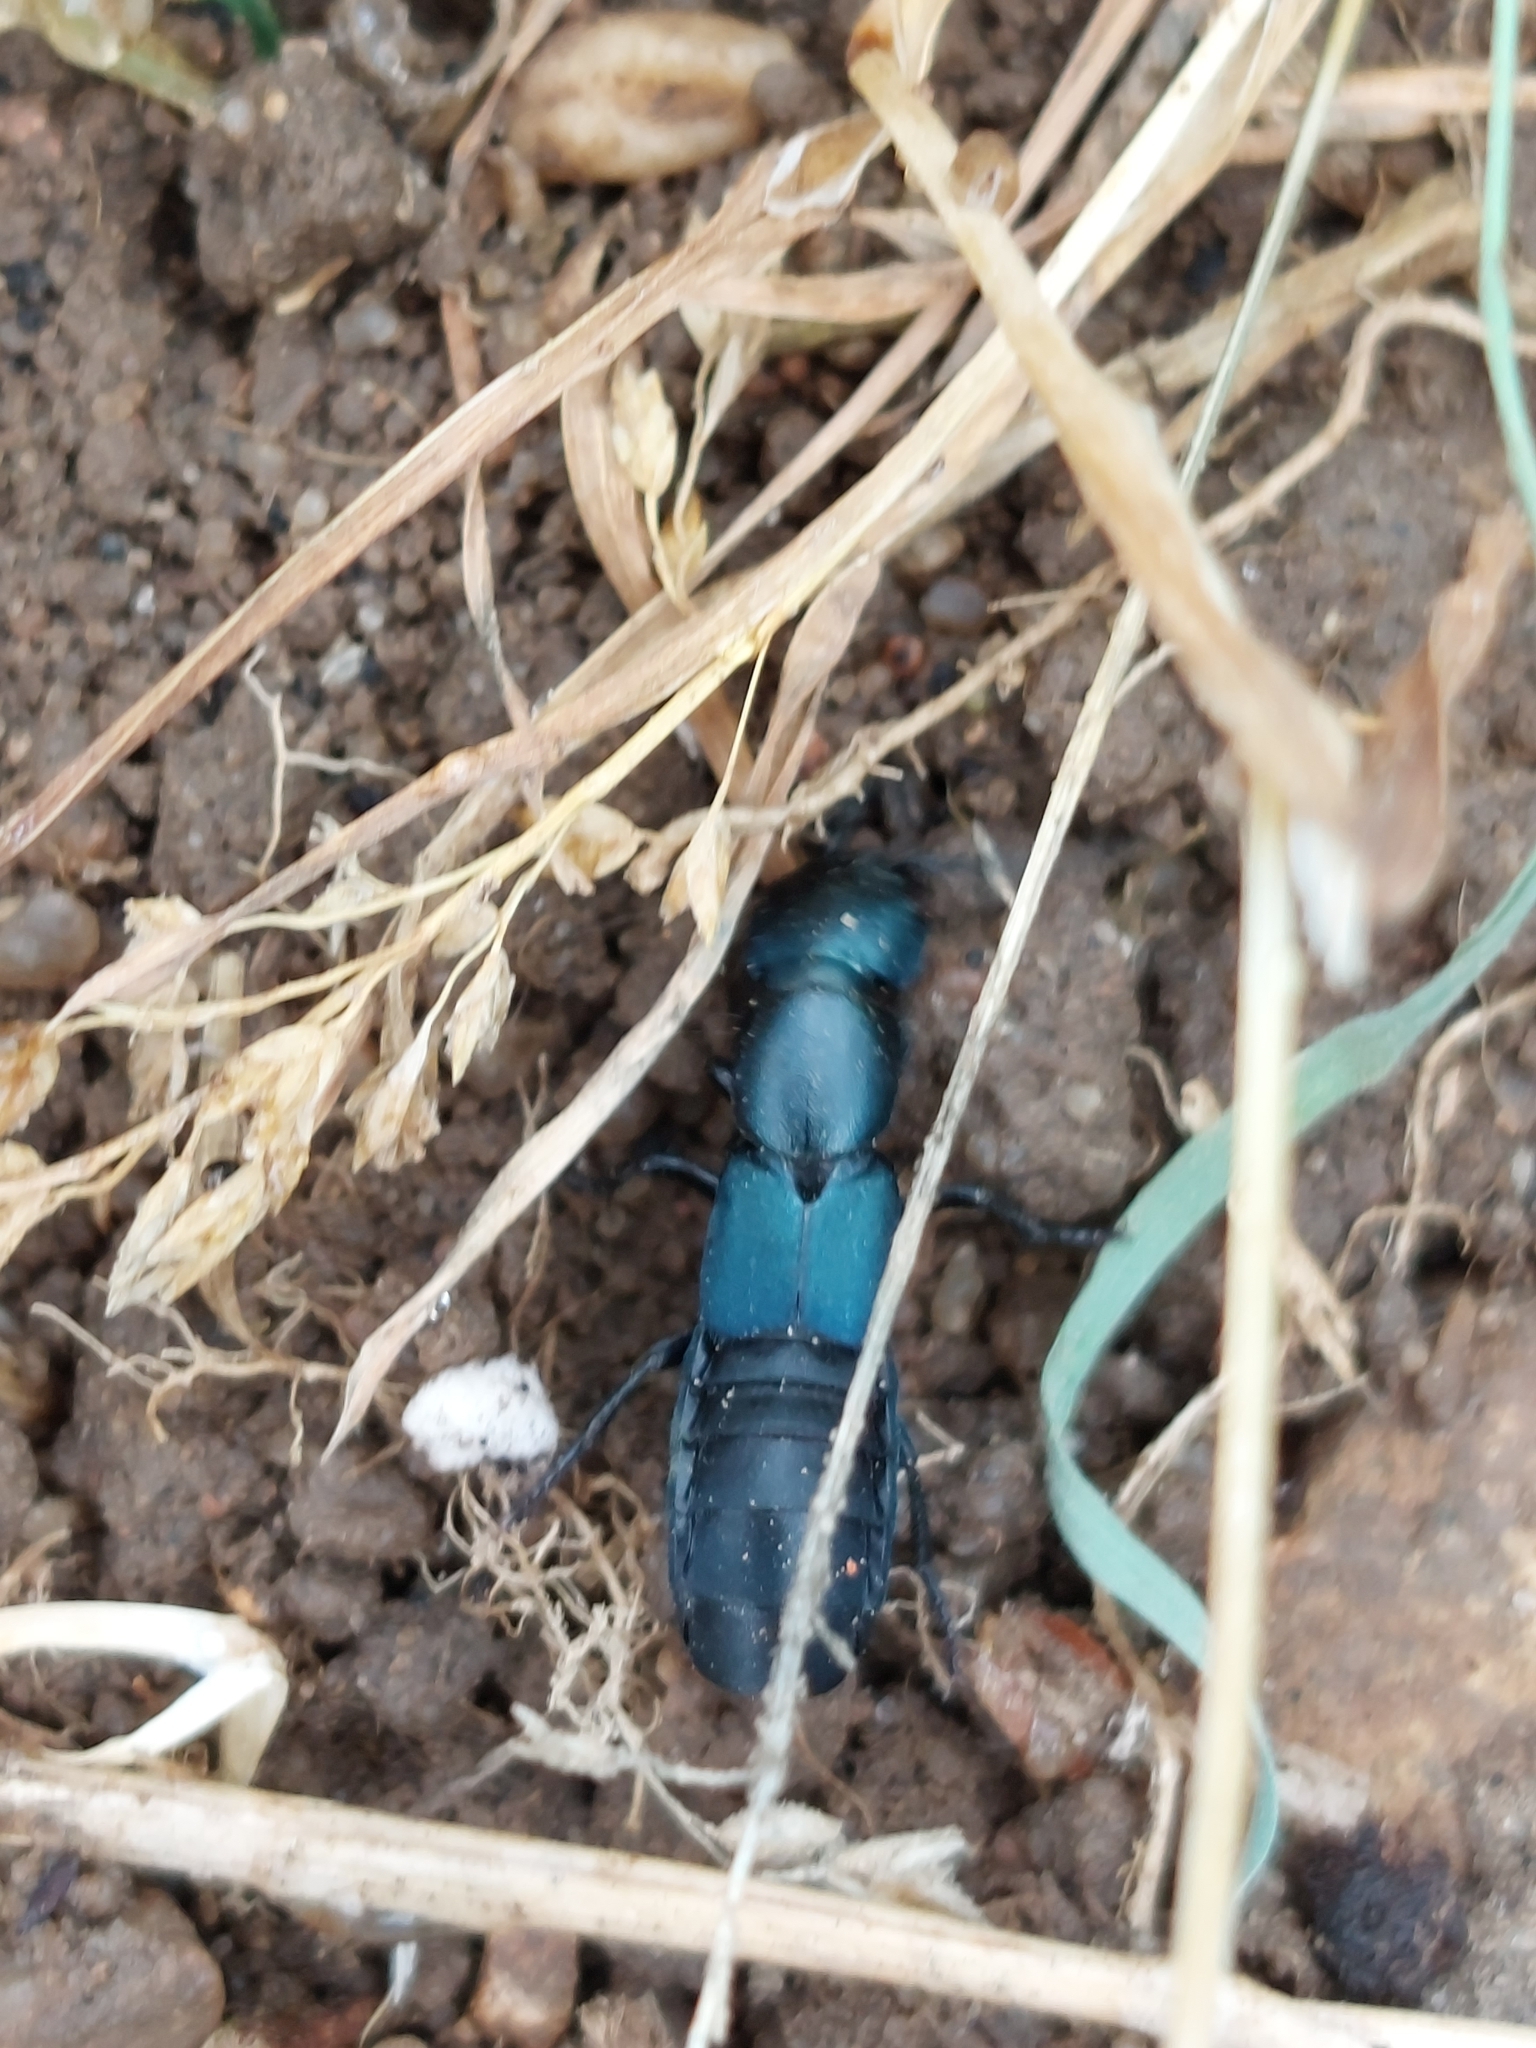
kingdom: Animalia
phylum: Arthropoda
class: Insecta
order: Coleoptera
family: Staphylinidae
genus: Ocypus
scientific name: Ocypus ophthalmicus
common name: Blue rove-beetle
